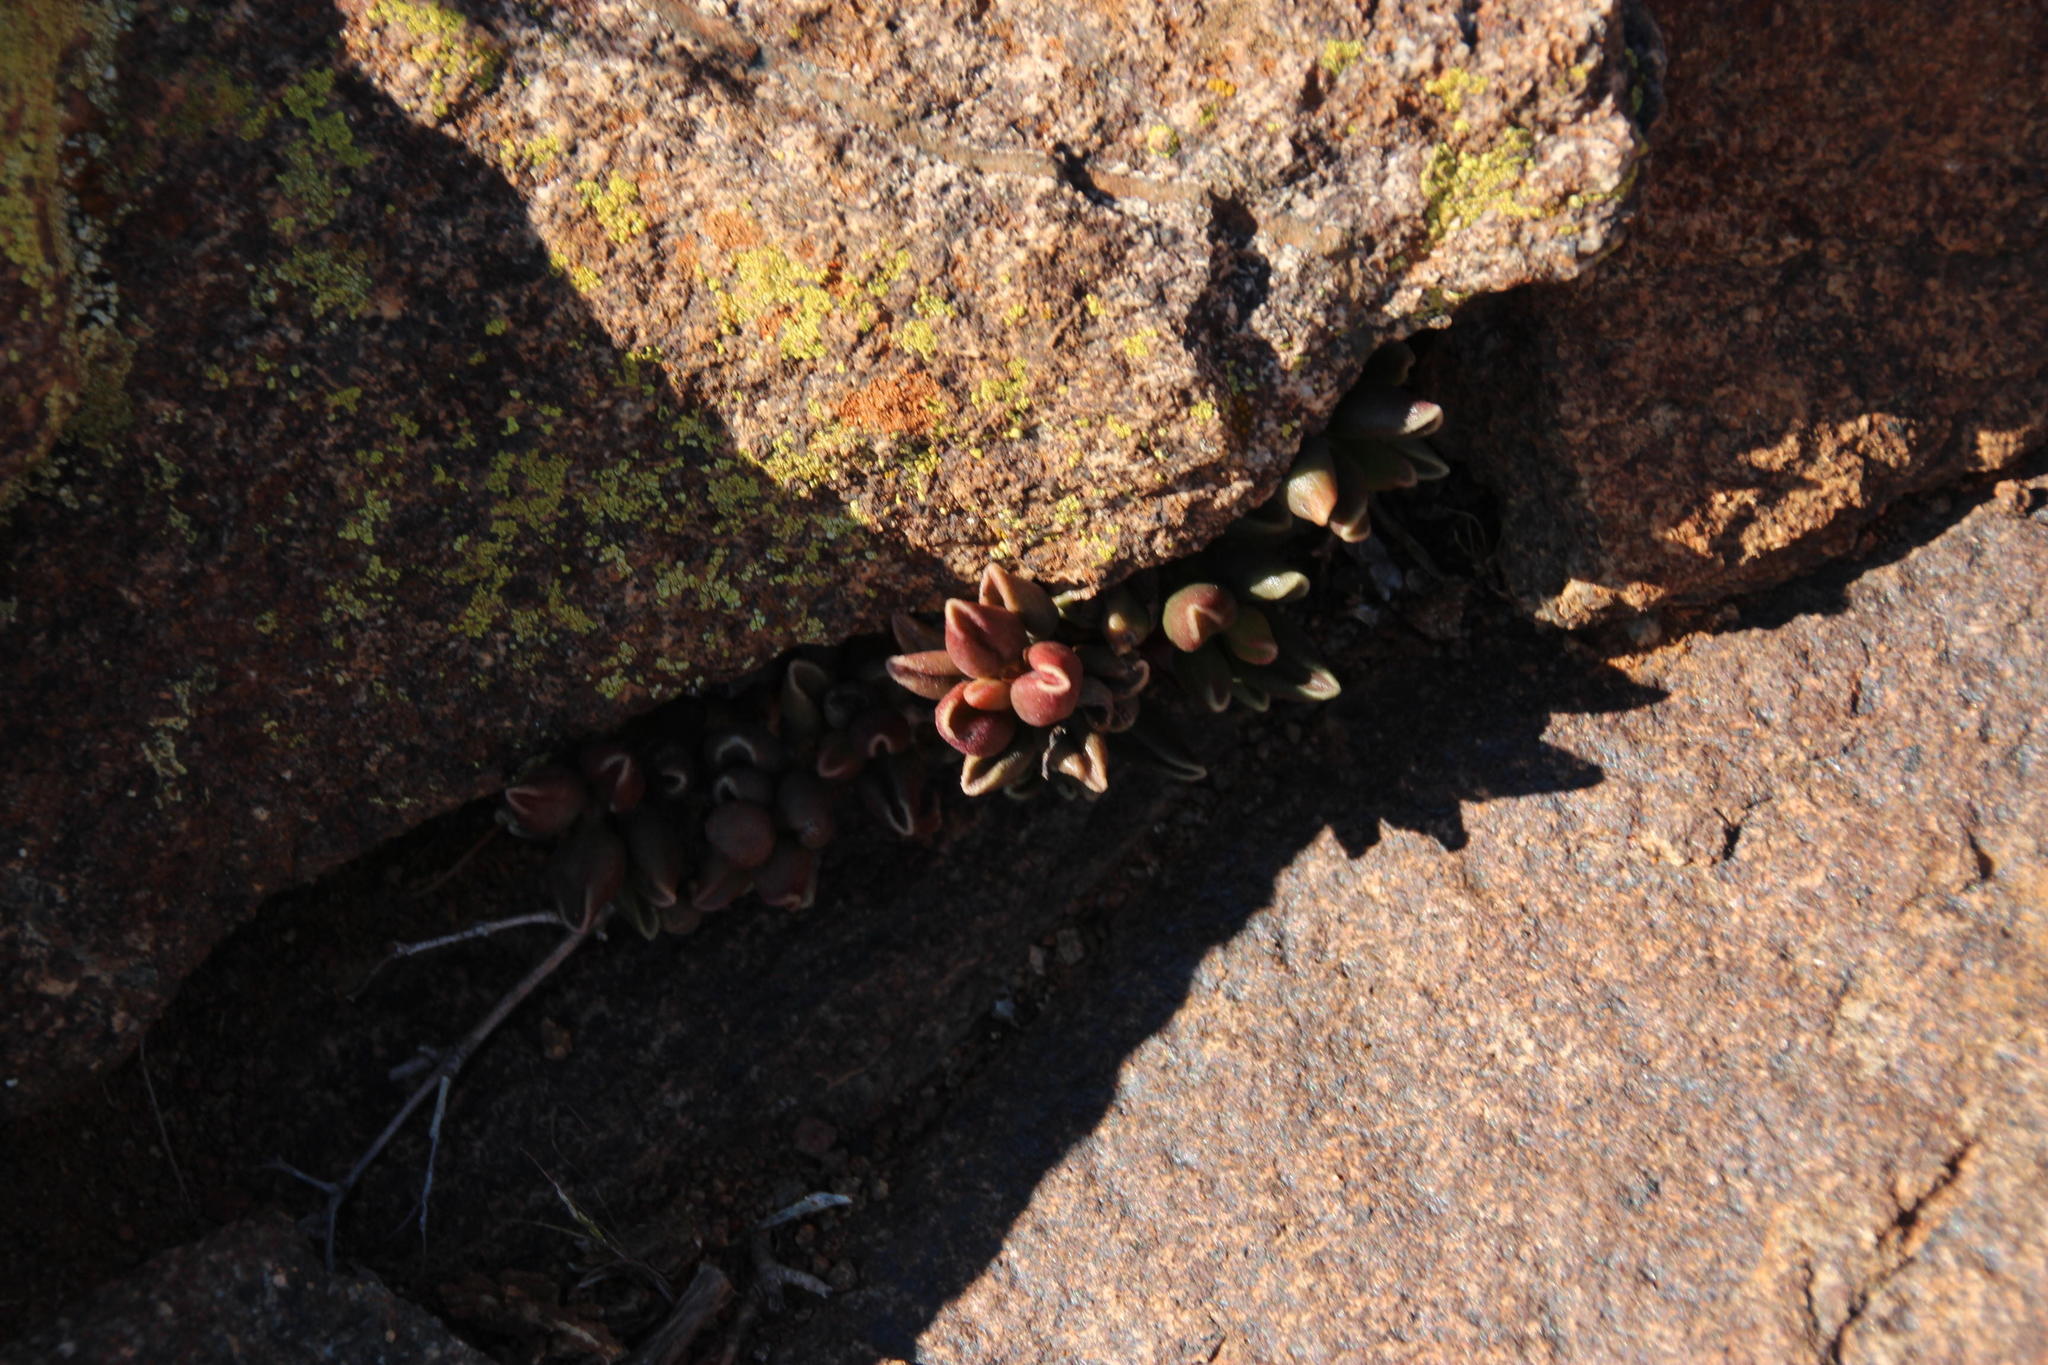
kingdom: Plantae
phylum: Tracheophyta
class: Magnoliopsida
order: Saxifragales
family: Crassulaceae
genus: Adromischus
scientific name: Adromischus marianiae
